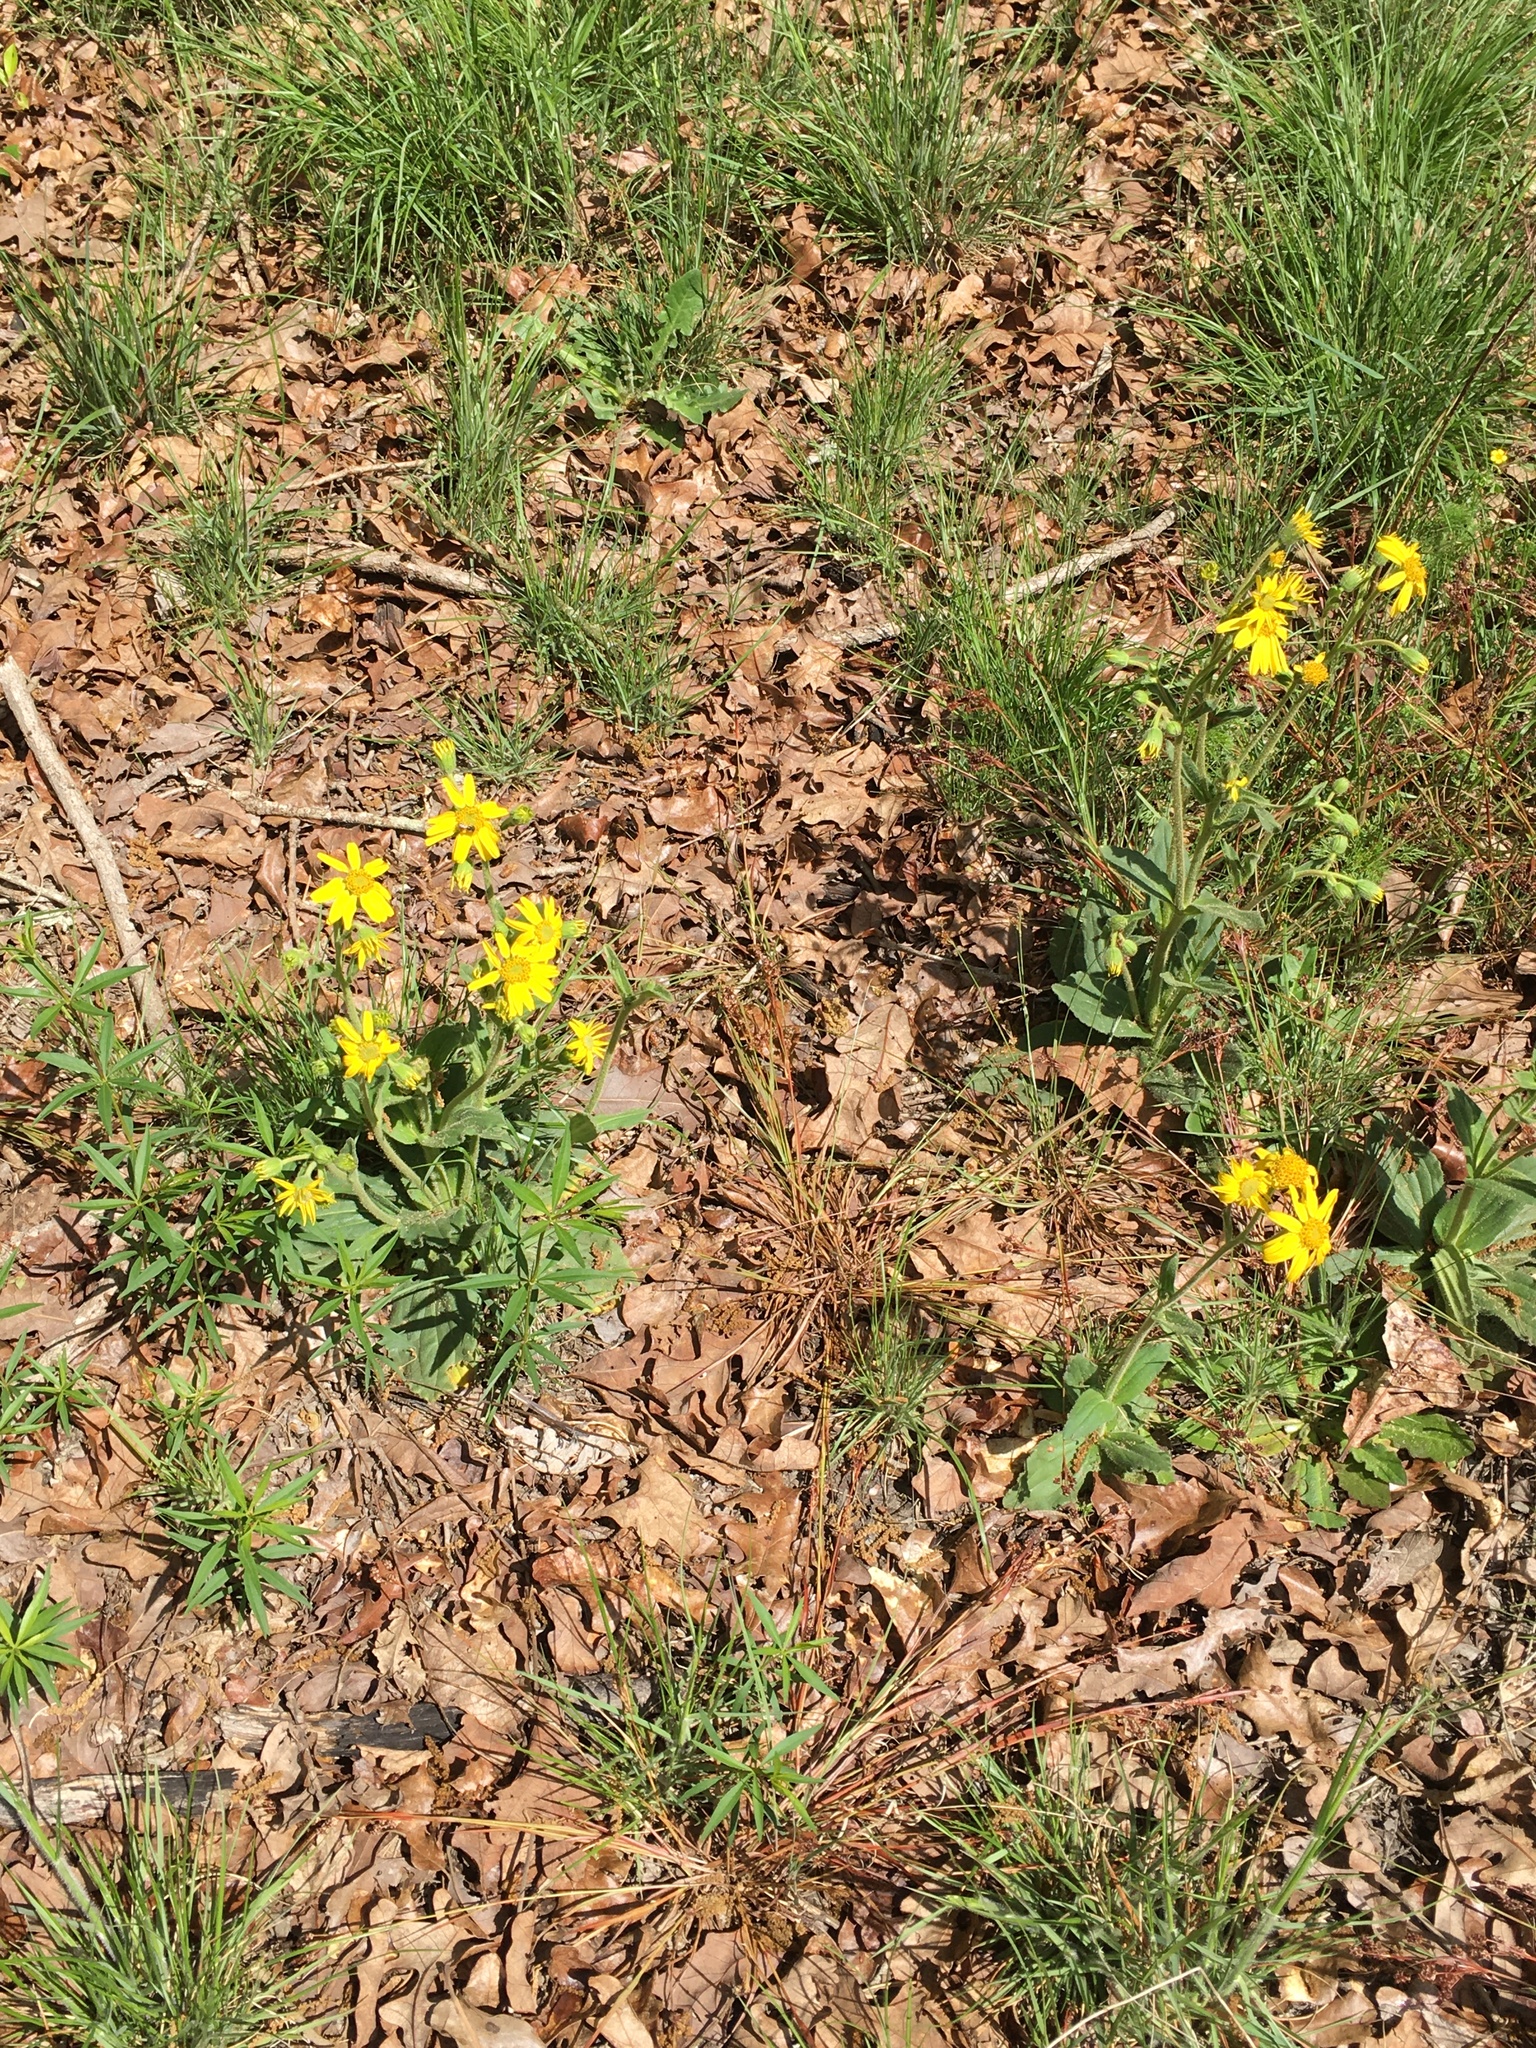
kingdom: Plantae
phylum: Tracheophyta
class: Magnoliopsida
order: Asterales
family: Asteraceae
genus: Arnica
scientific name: Arnica acaulis
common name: Common leopardbane
